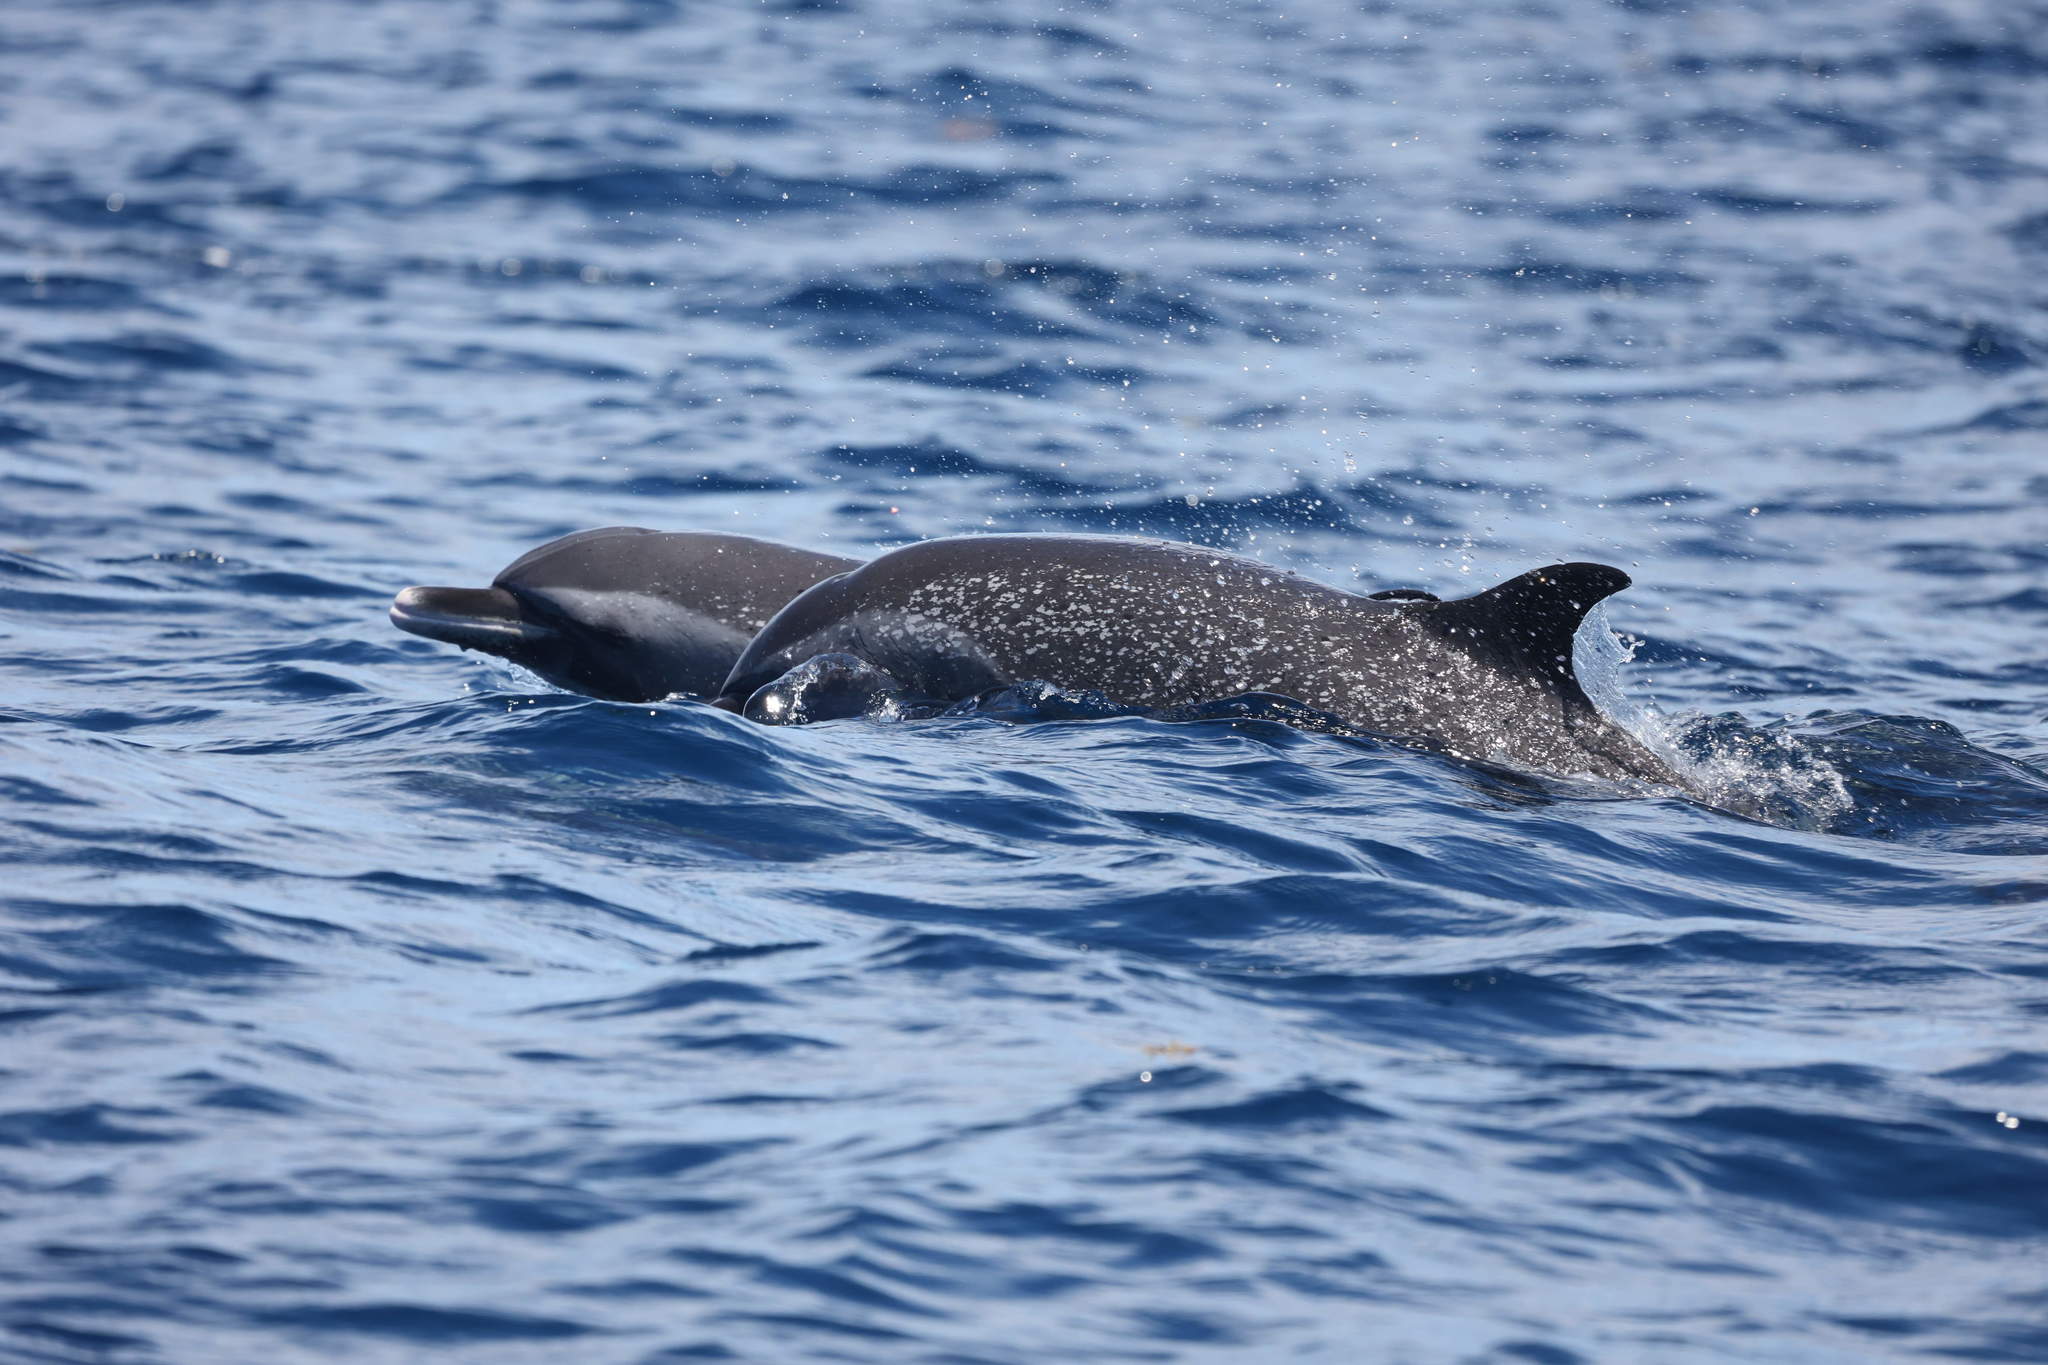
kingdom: Animalia
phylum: Chordata
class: Mammalia
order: Cetacea
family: Delphinidae
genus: Stenella
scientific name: Stenella attenuata
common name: Pantropical spotted dolphin
